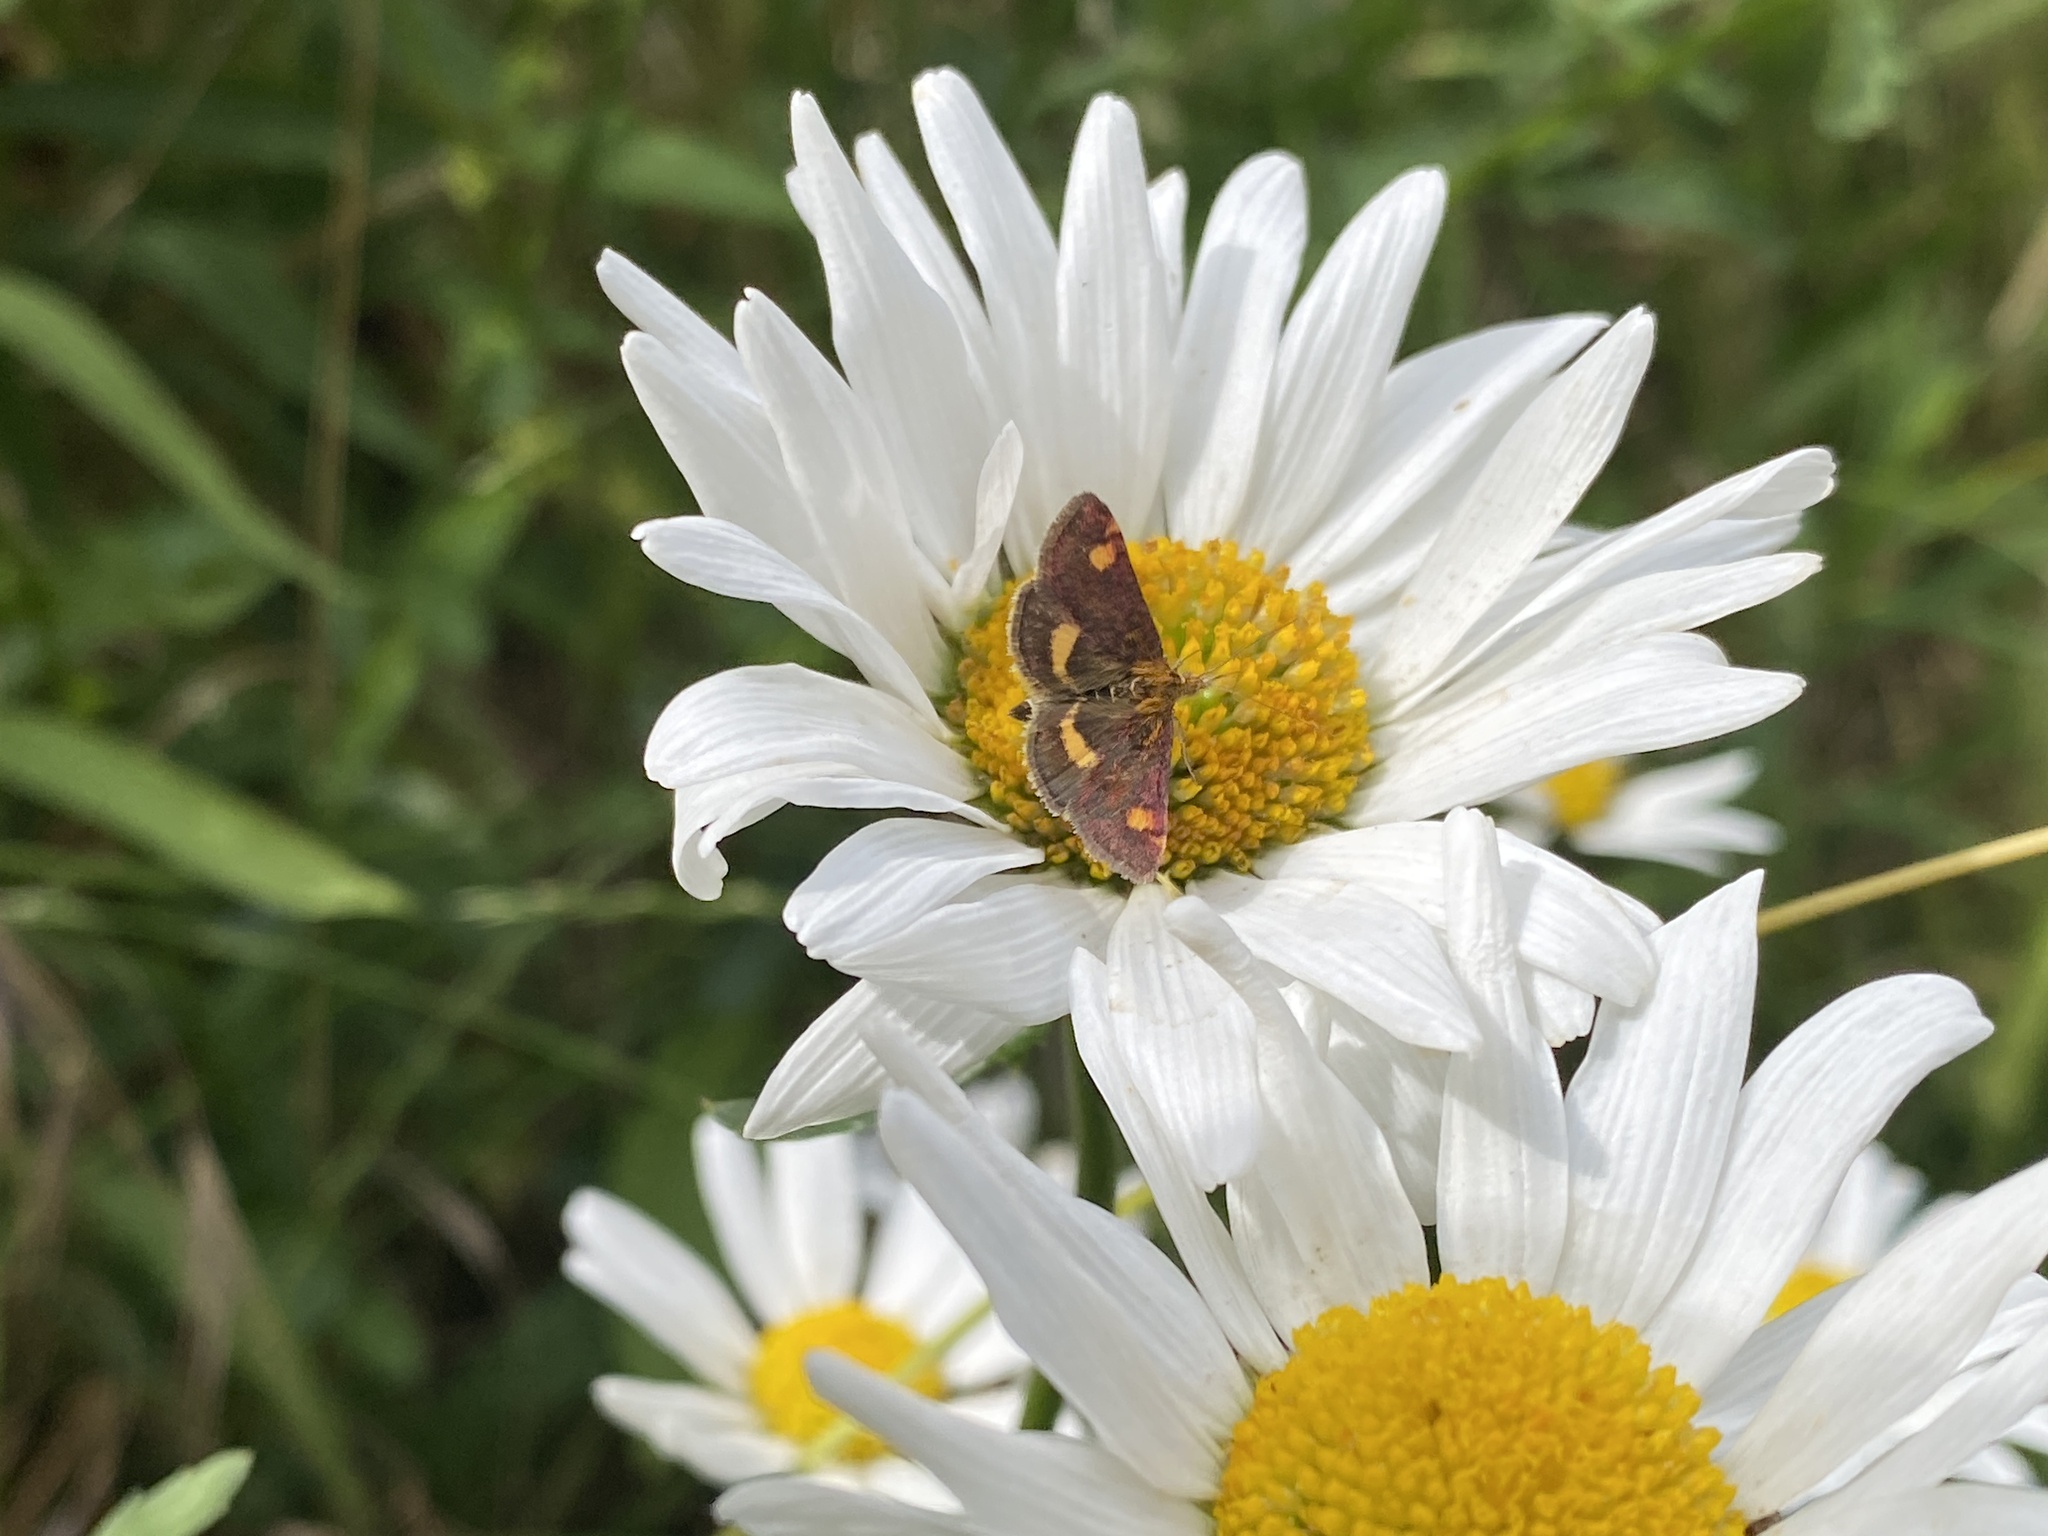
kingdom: Animalia
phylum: Arthropoda
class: Insecta
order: Lepidoptera
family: Crambidae
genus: Pyrausta
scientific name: Pyrausta aurata
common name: Small purple & gold
